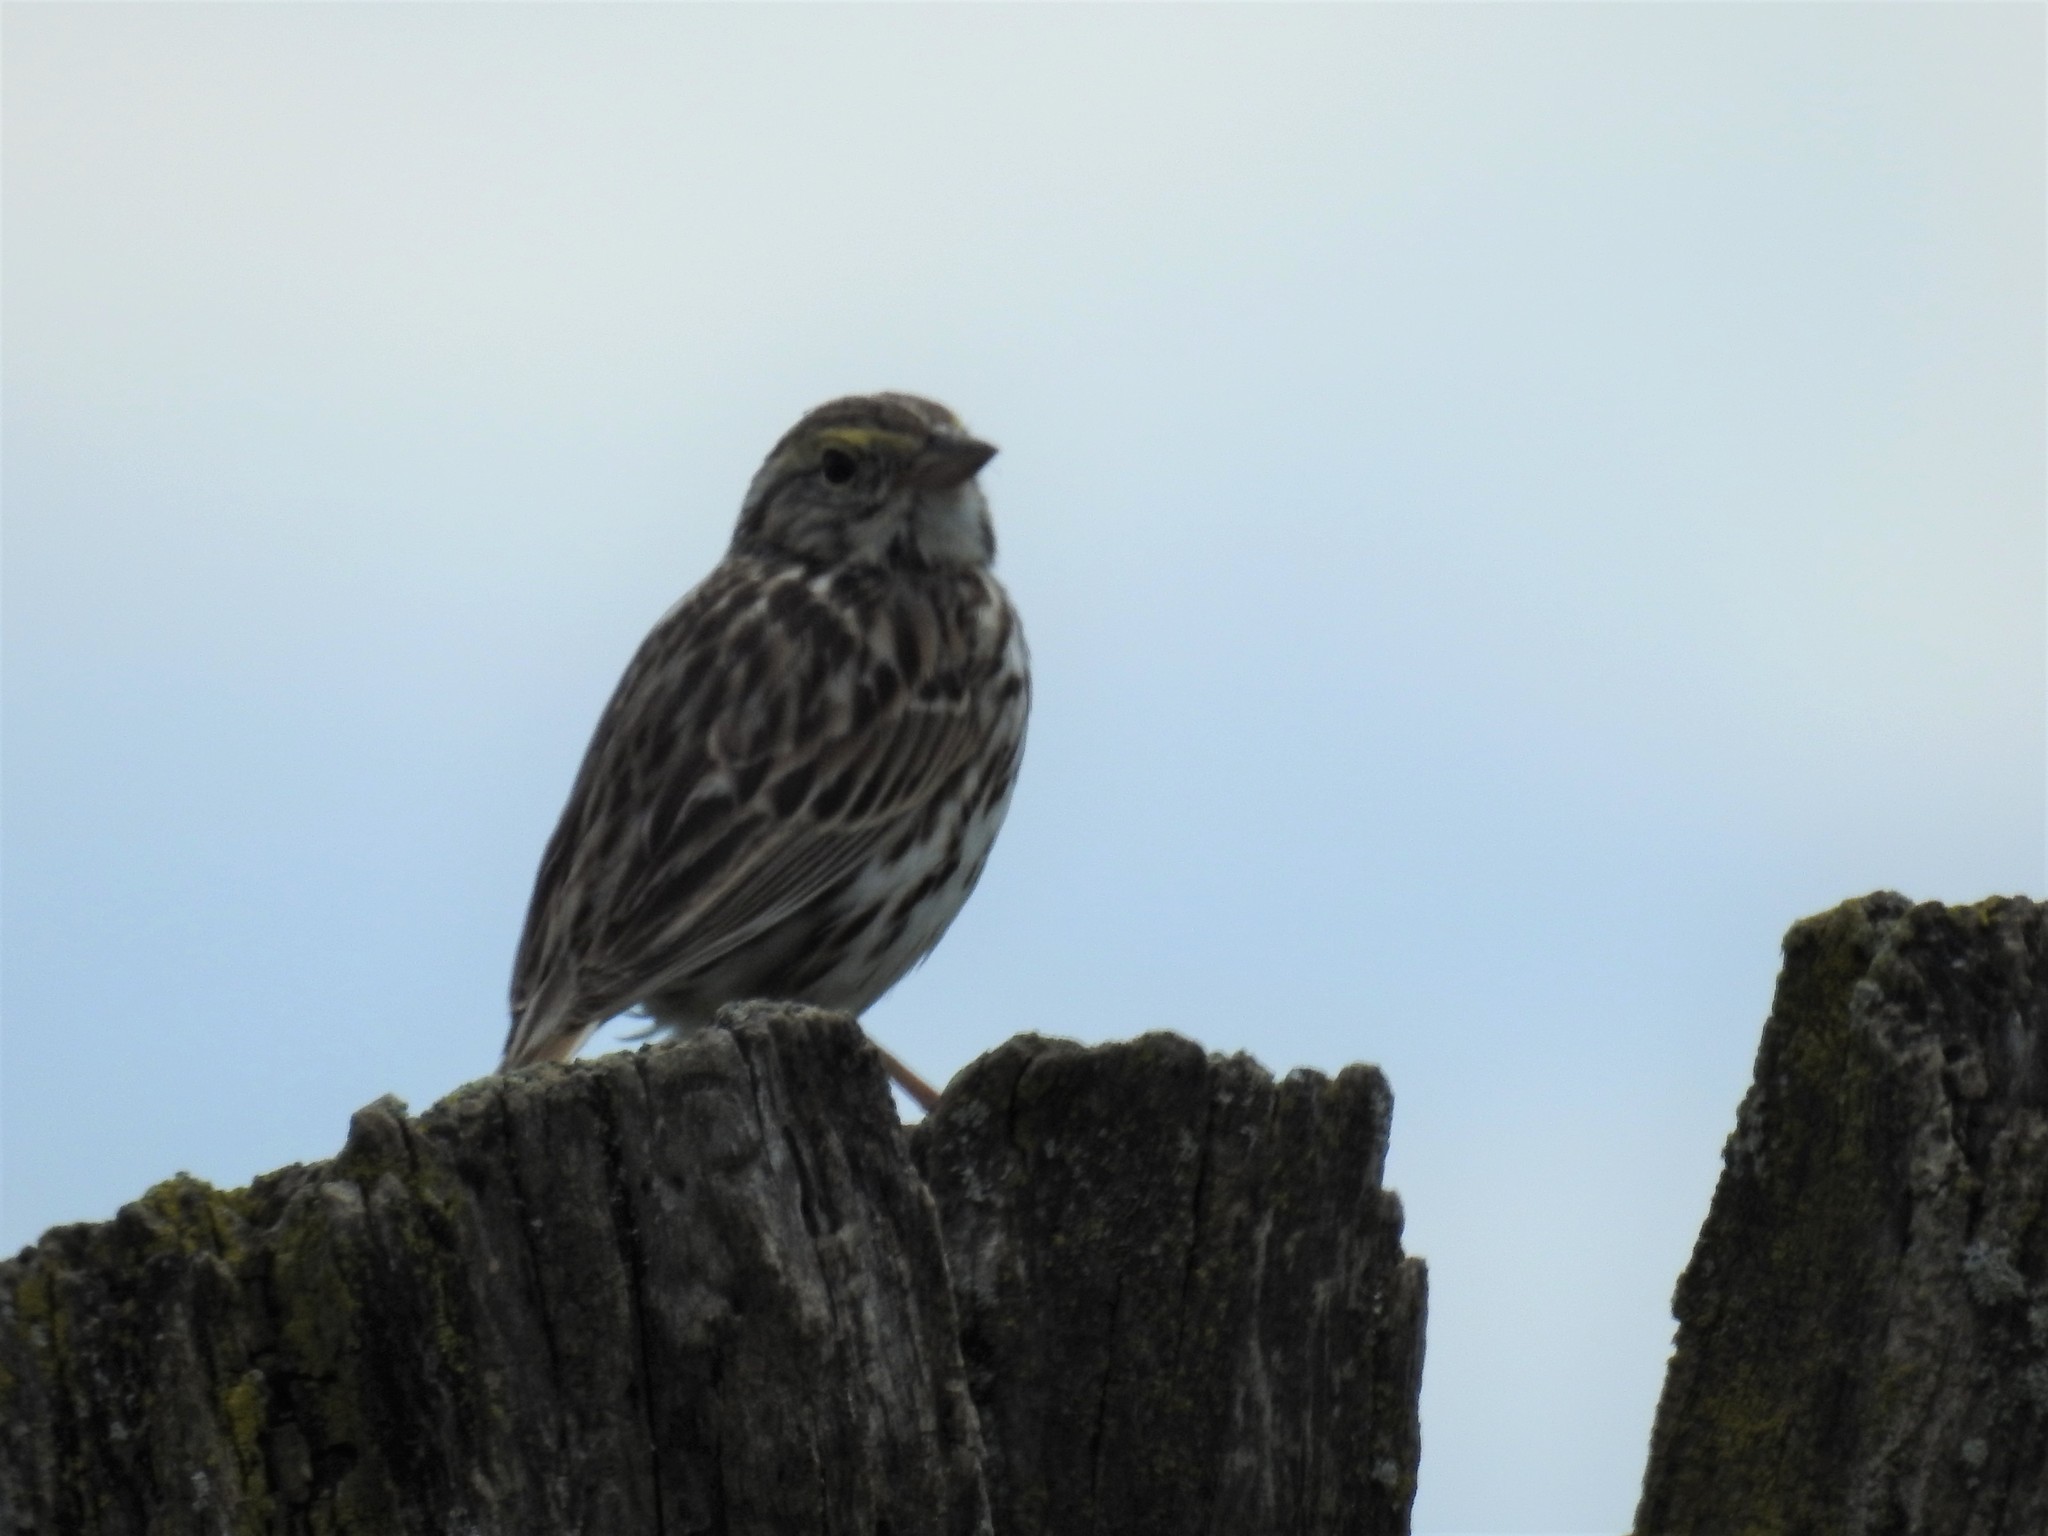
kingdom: Animalia
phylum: Chordata
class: Aves
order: Passeriformes
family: Passerellidae
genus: Passerculus
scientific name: Passerculus sandwichensis
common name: Savannah sparrow
